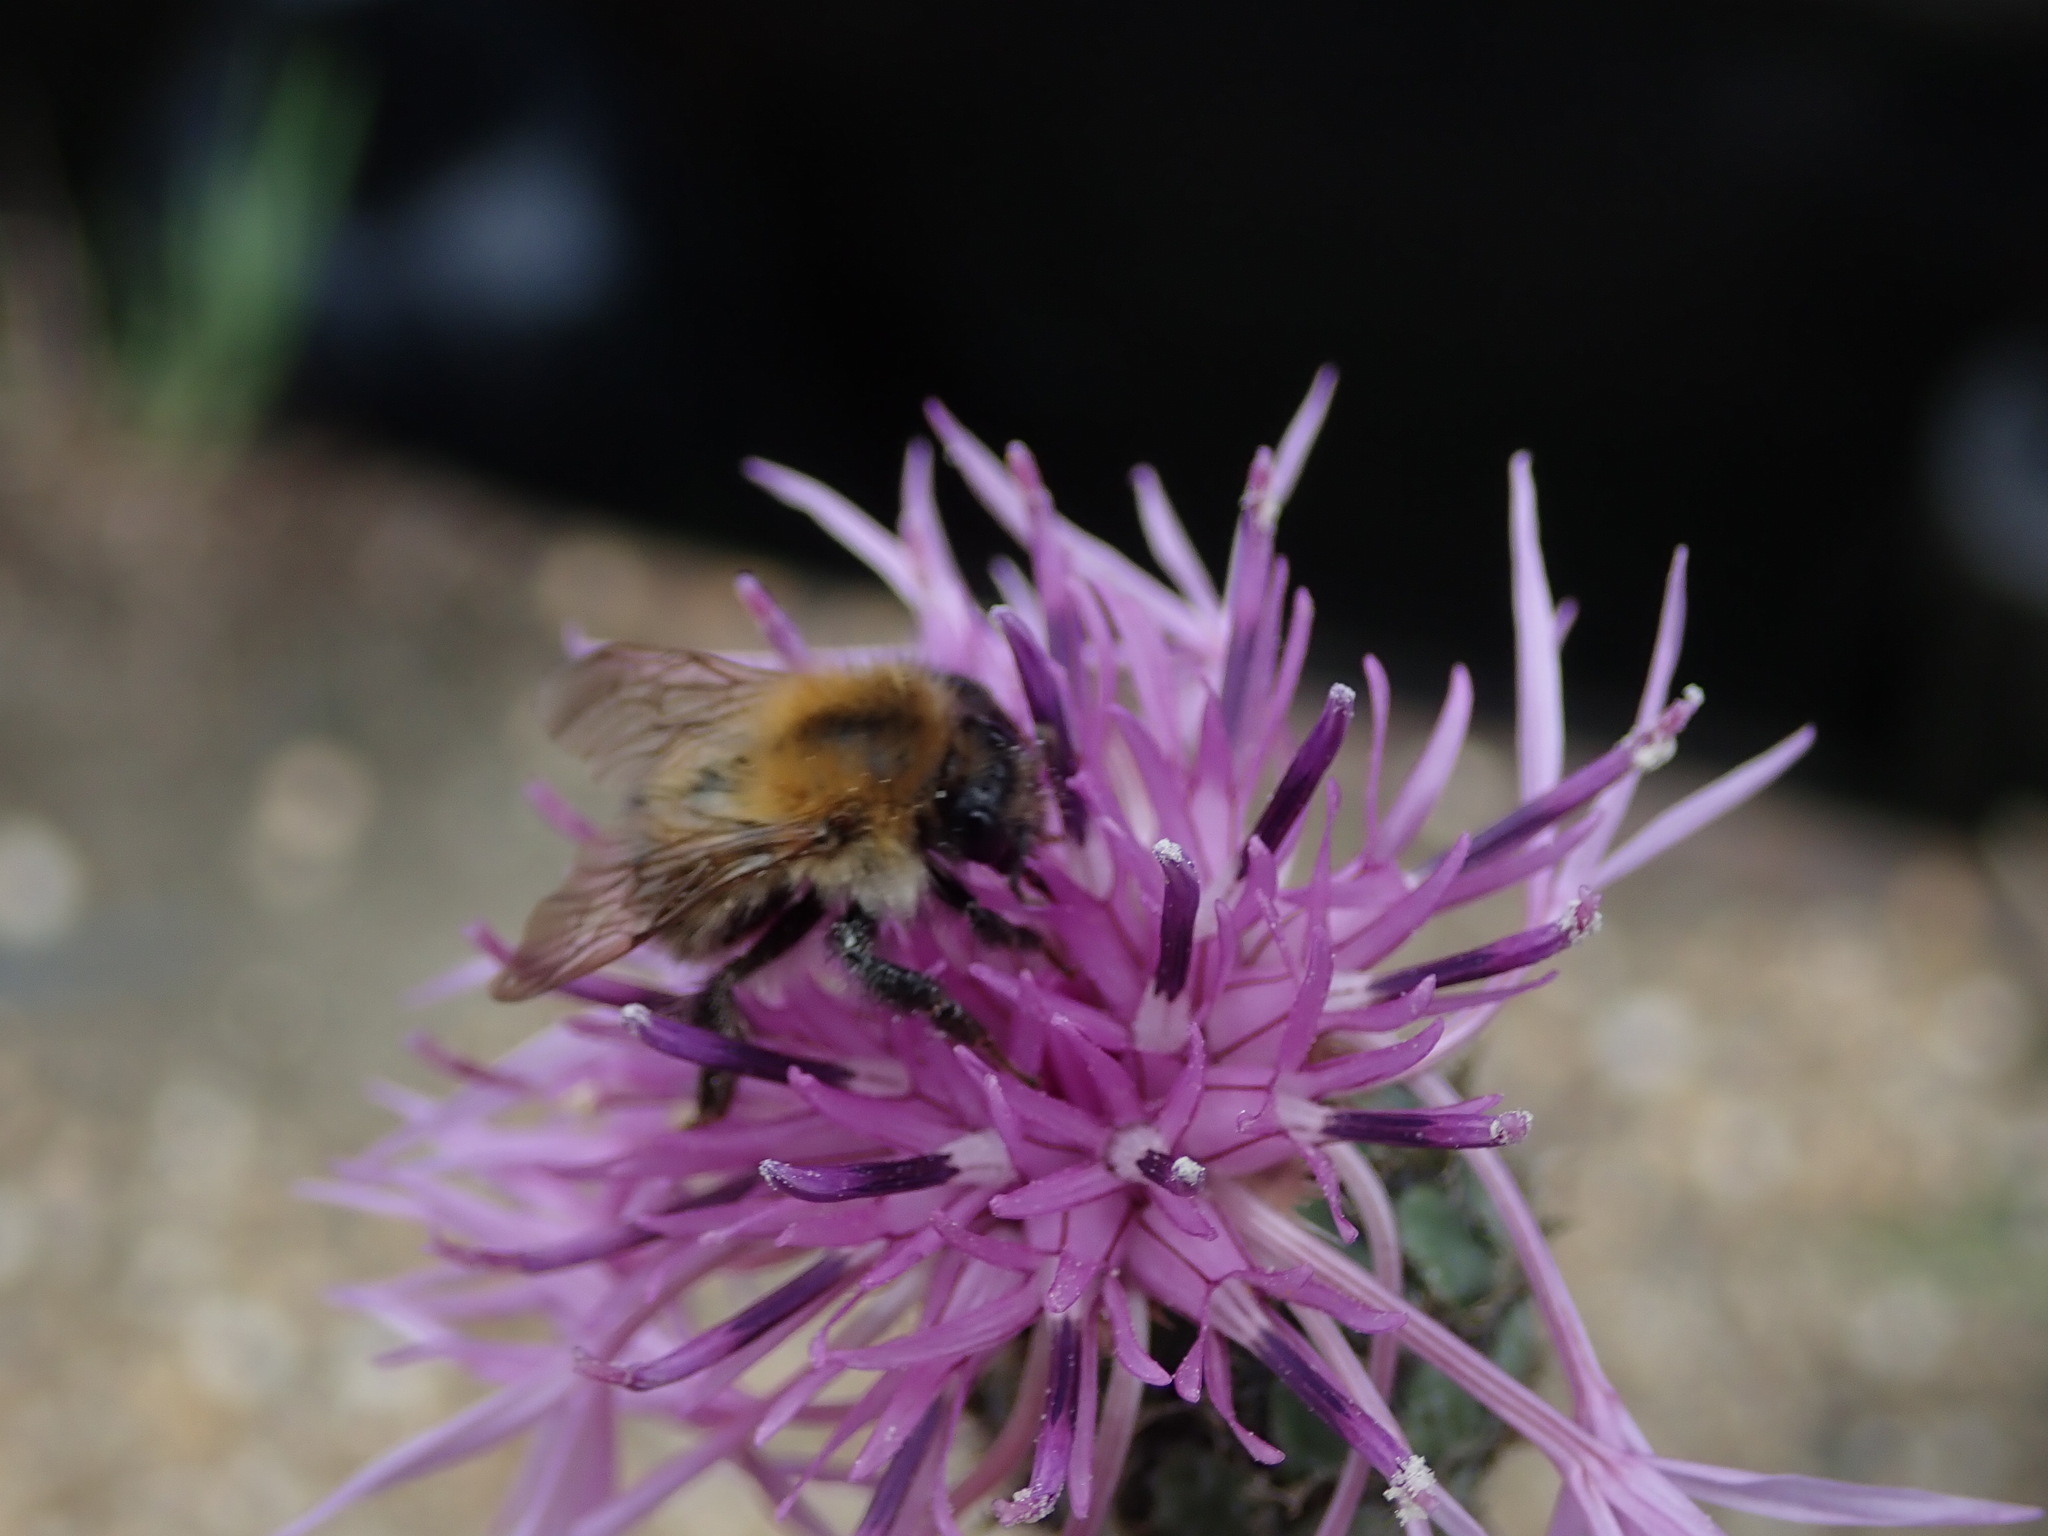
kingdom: Animalia
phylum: Arthropoda
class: Insecta
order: Hymenoptera
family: Apidae
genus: Bombus
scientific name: Bombus pascuorum
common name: Common carder bee
